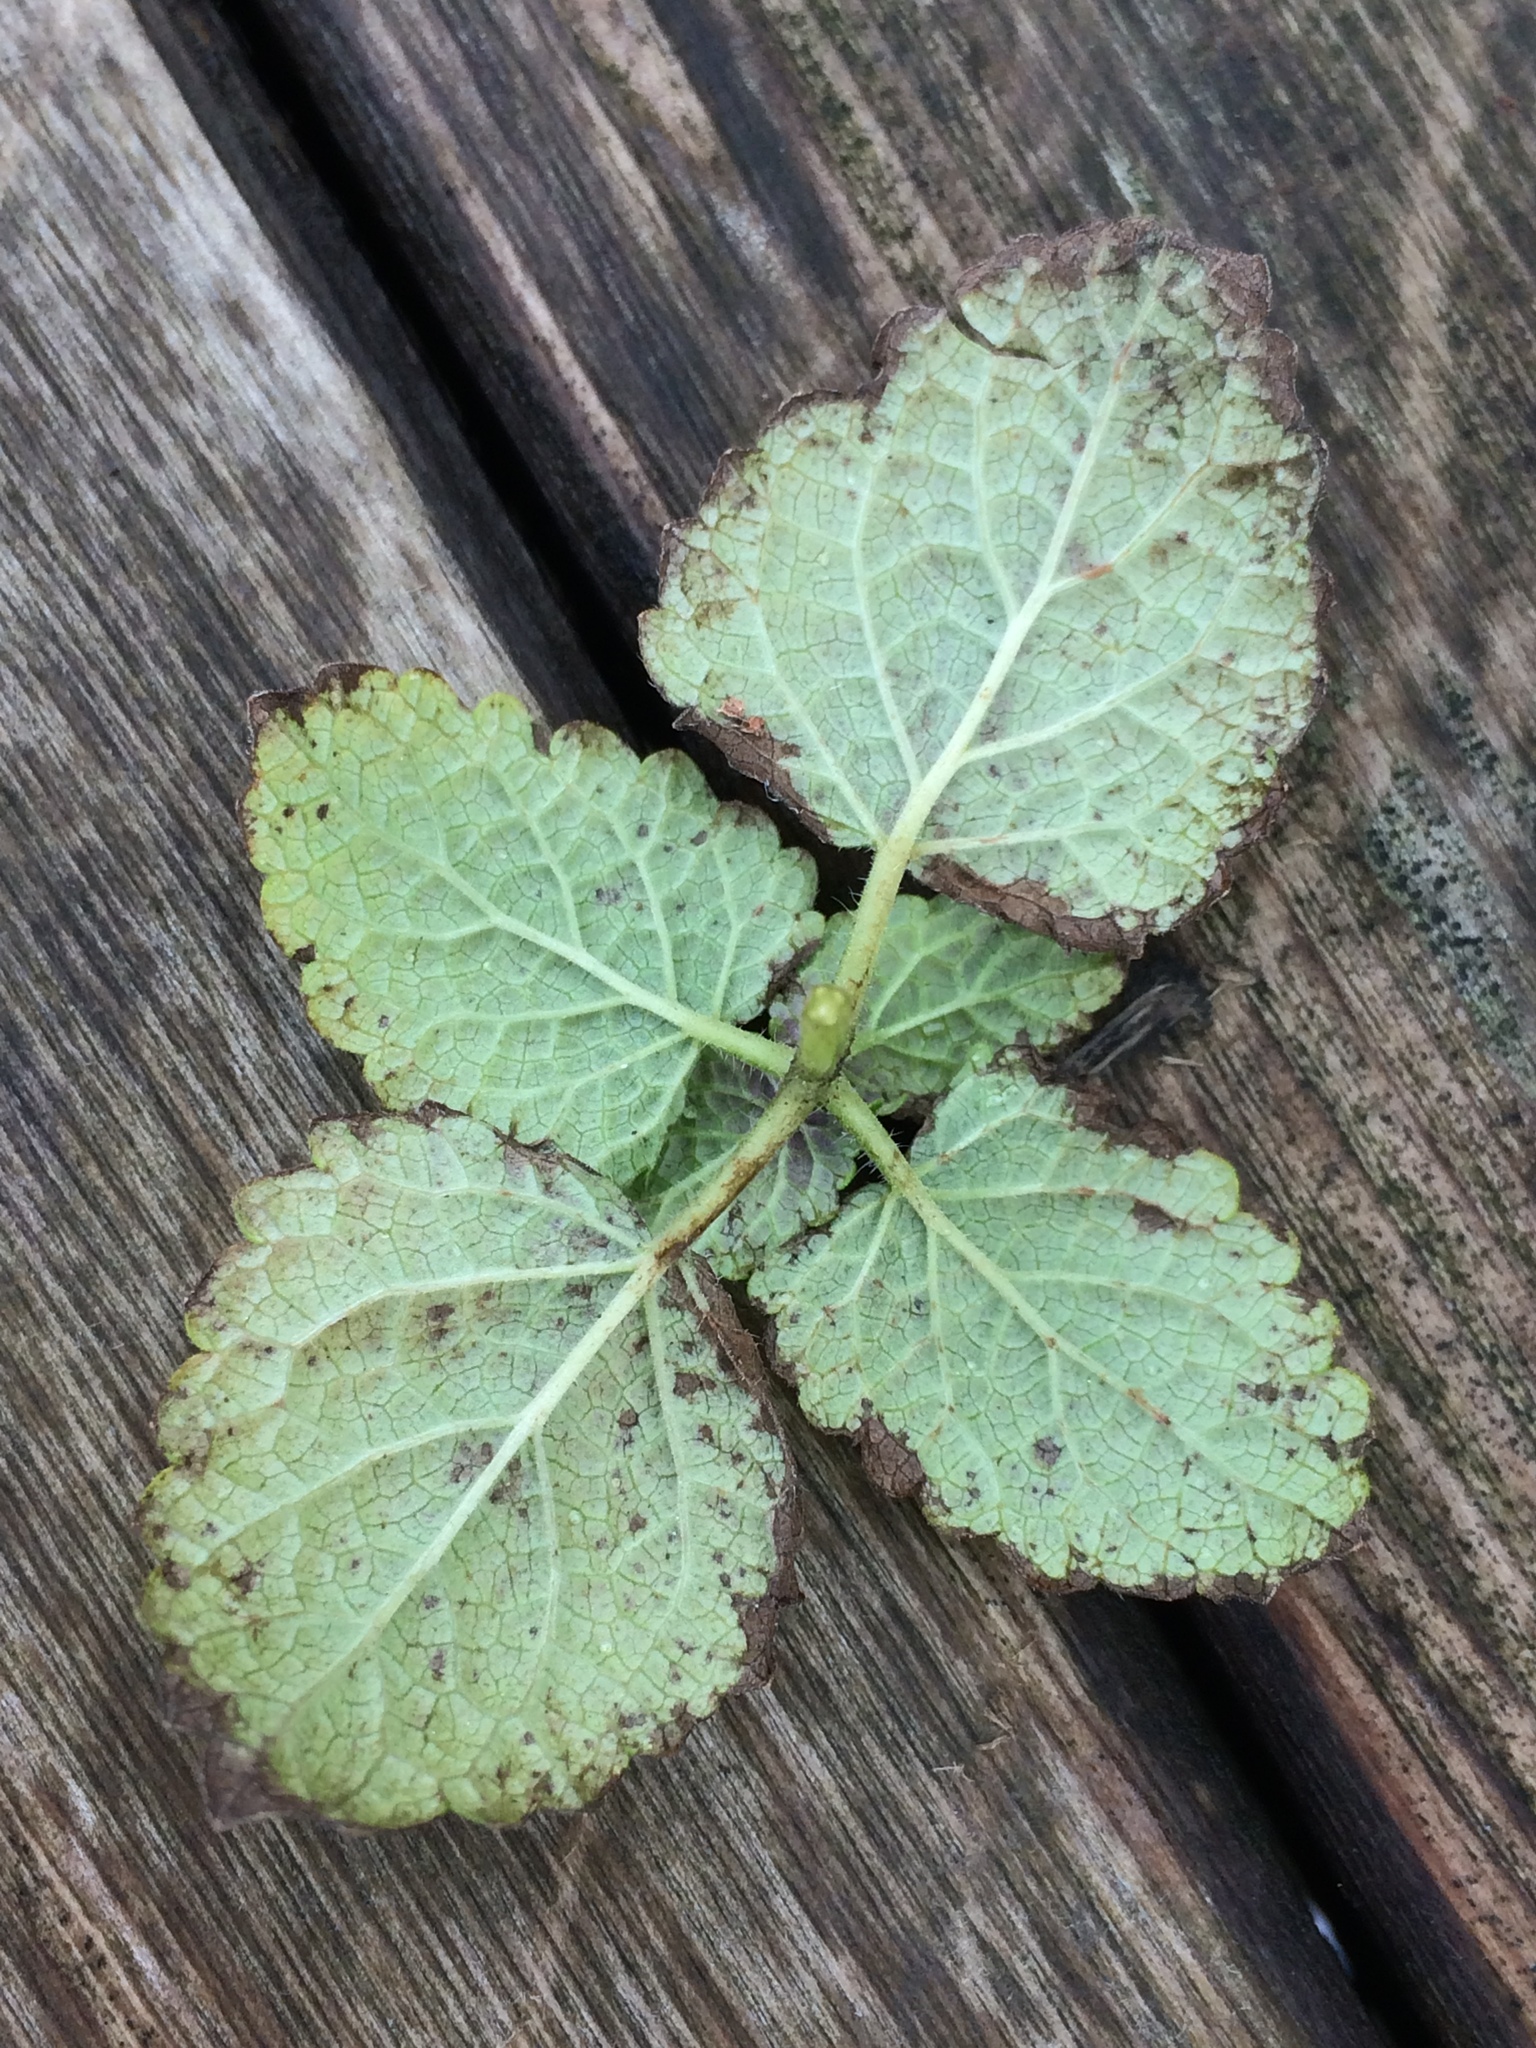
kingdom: Plantae
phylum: Tracheophyta
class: Magnoliopsida
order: Lamiales
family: Lamiaceae
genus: Melissa
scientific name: Melissa officinalis
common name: Balm
